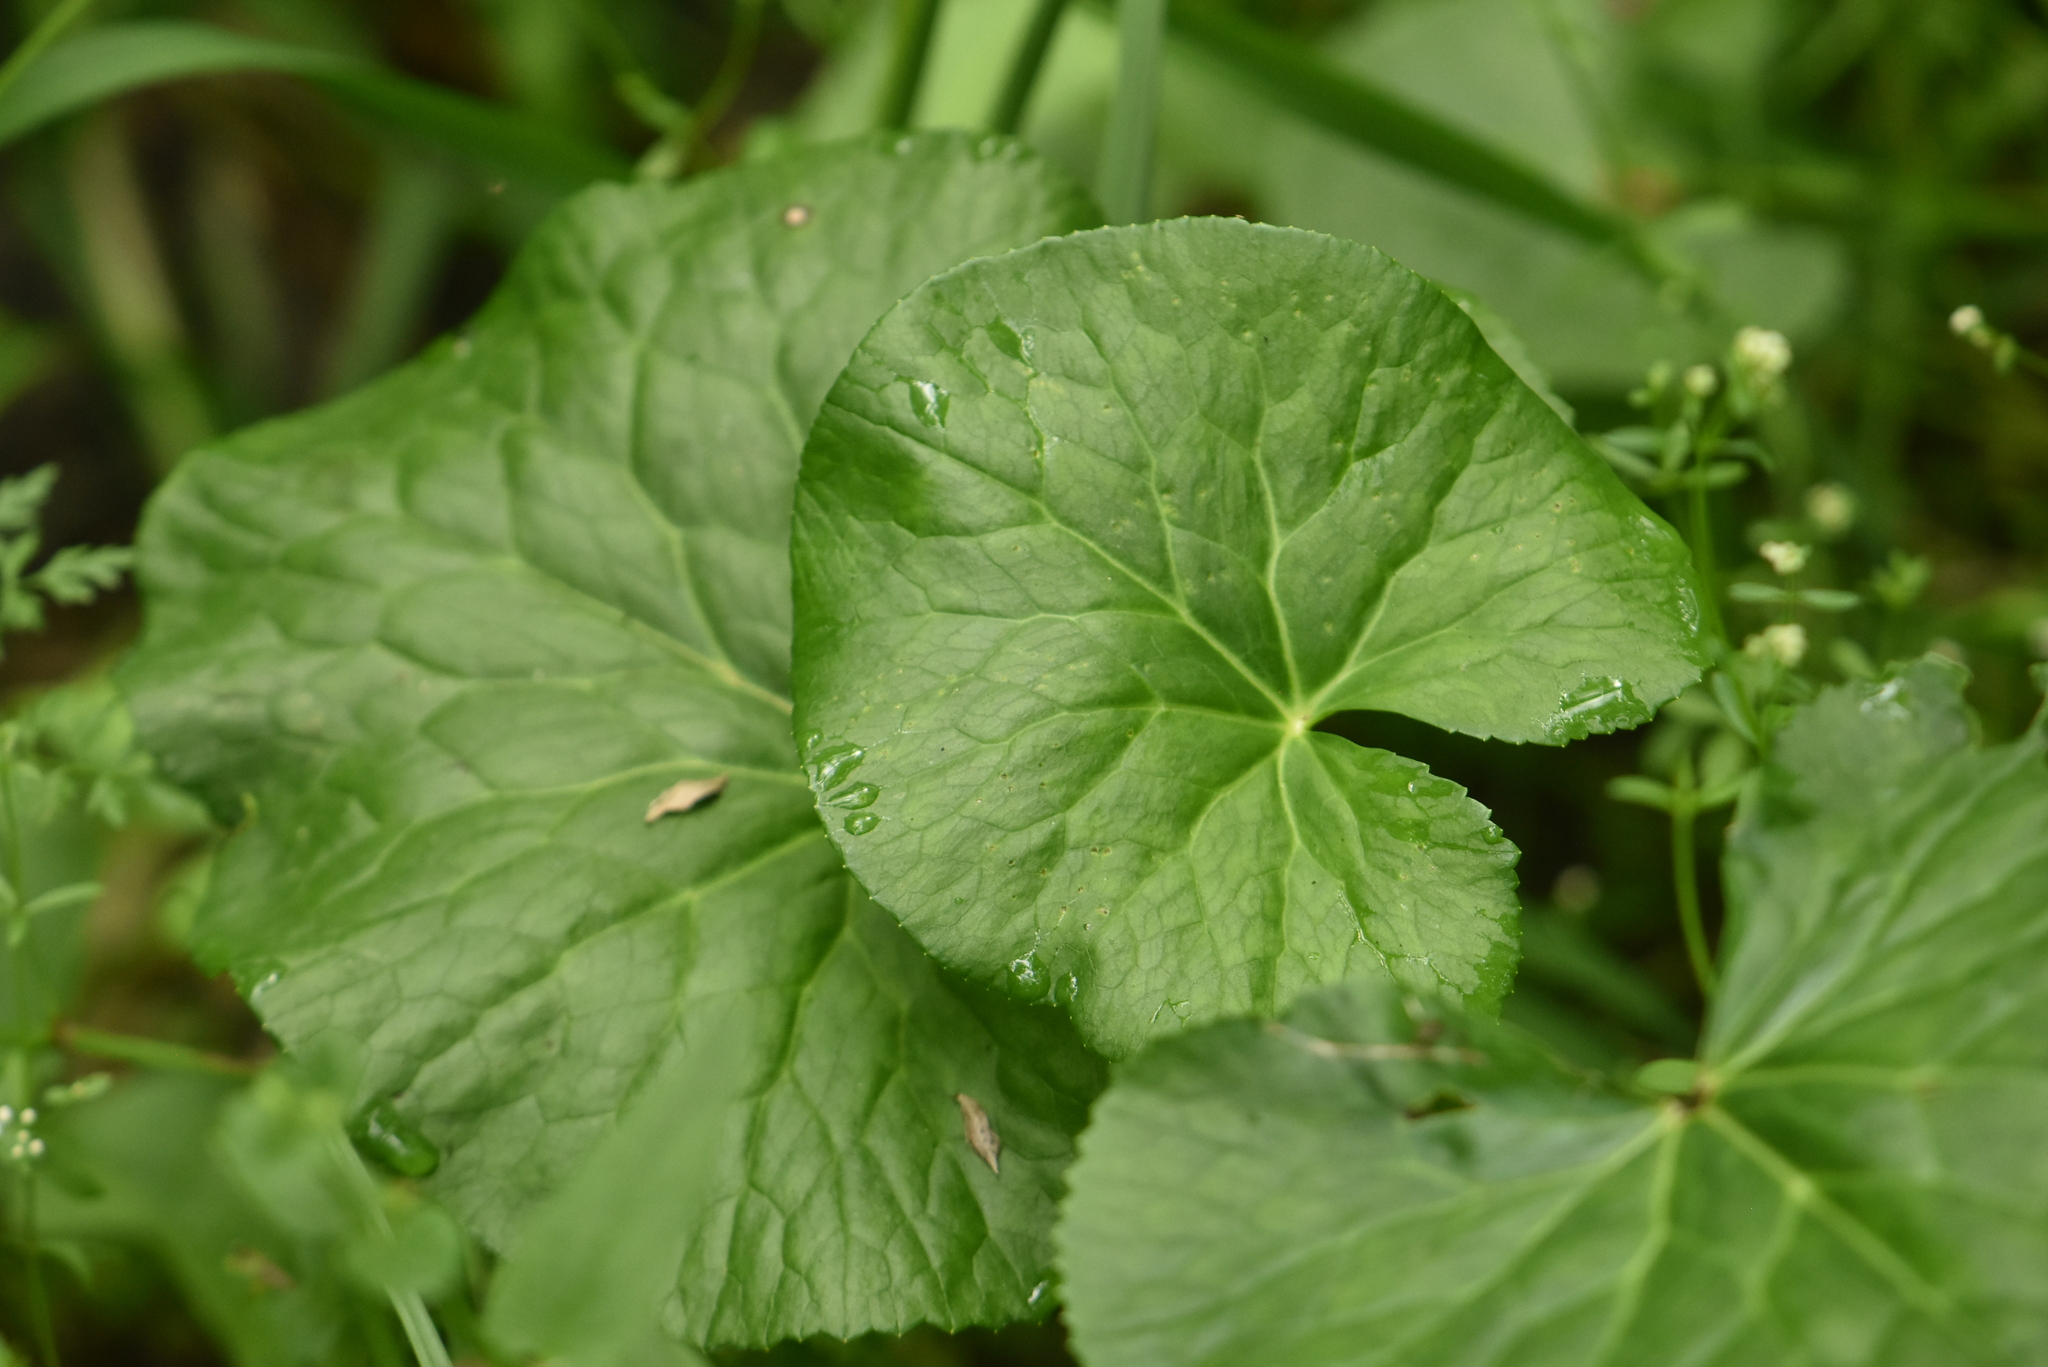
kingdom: Plantae
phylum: Tracheophyta
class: Magnoliopsida
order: Ranunculales
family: Ranunculaceae
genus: Caltha
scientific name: Caltha palustris
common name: Marsh marigold
